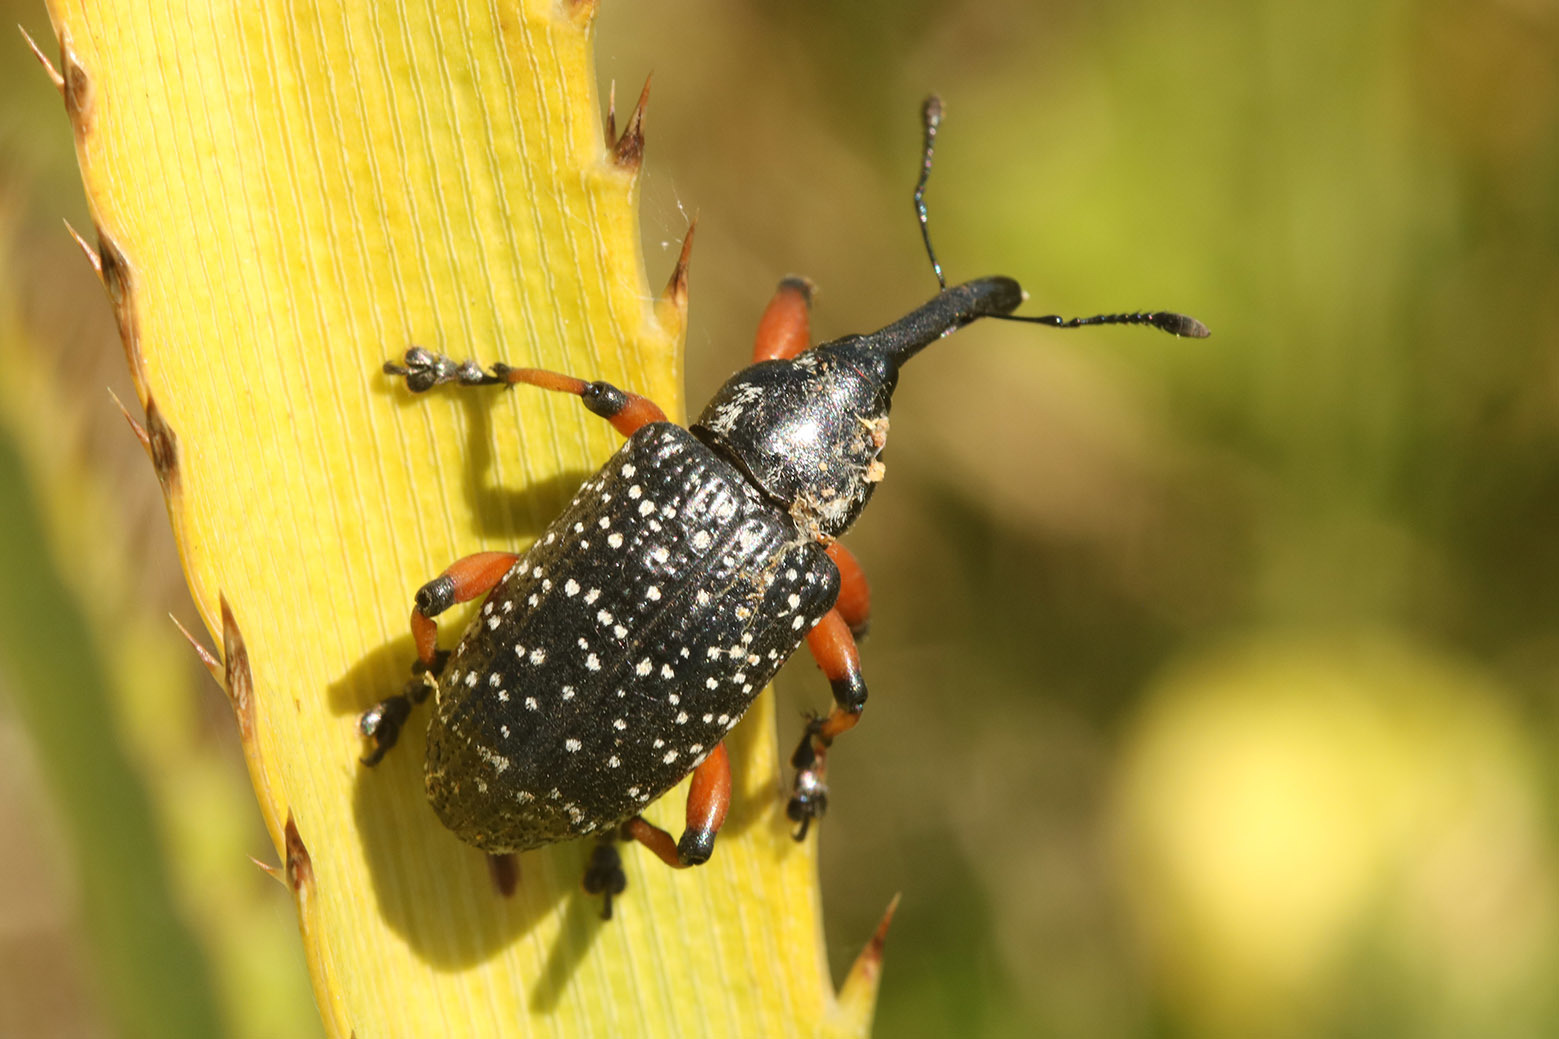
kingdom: Animalia
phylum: Arthropoda
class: Insecta
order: Coleoptera
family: Curculionidae
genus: Heilipodus
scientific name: Heilipodus erythropus
